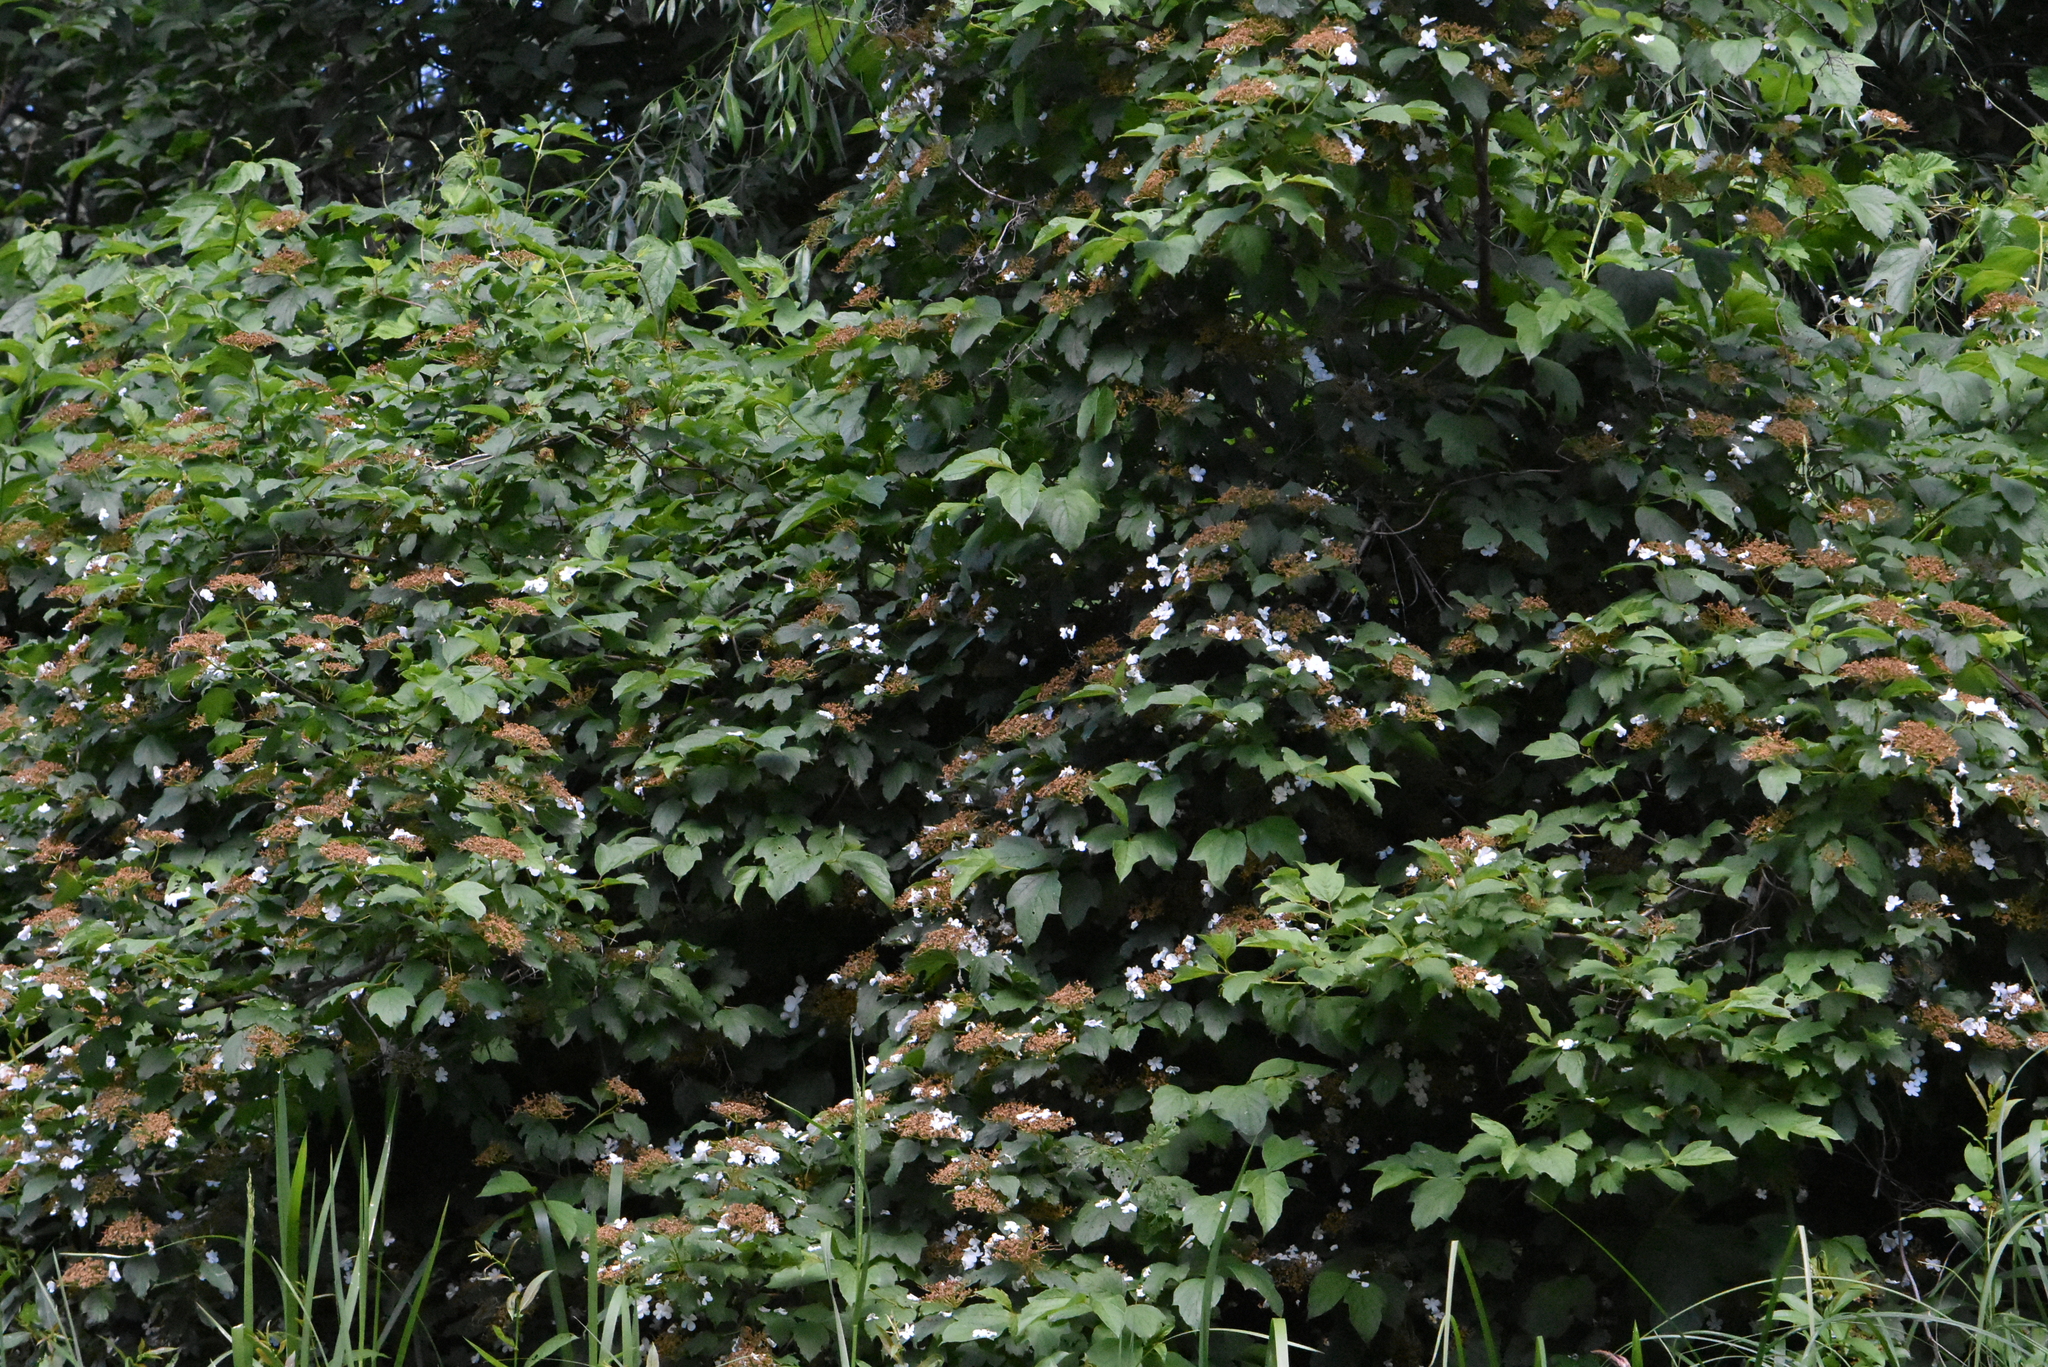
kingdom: Plantae
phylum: Tracheophyta
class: Magnoliopsida
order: Dipsacales
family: Viburnaceae
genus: Viburnum
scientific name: Viburnum opulus
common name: Guelder-rose
